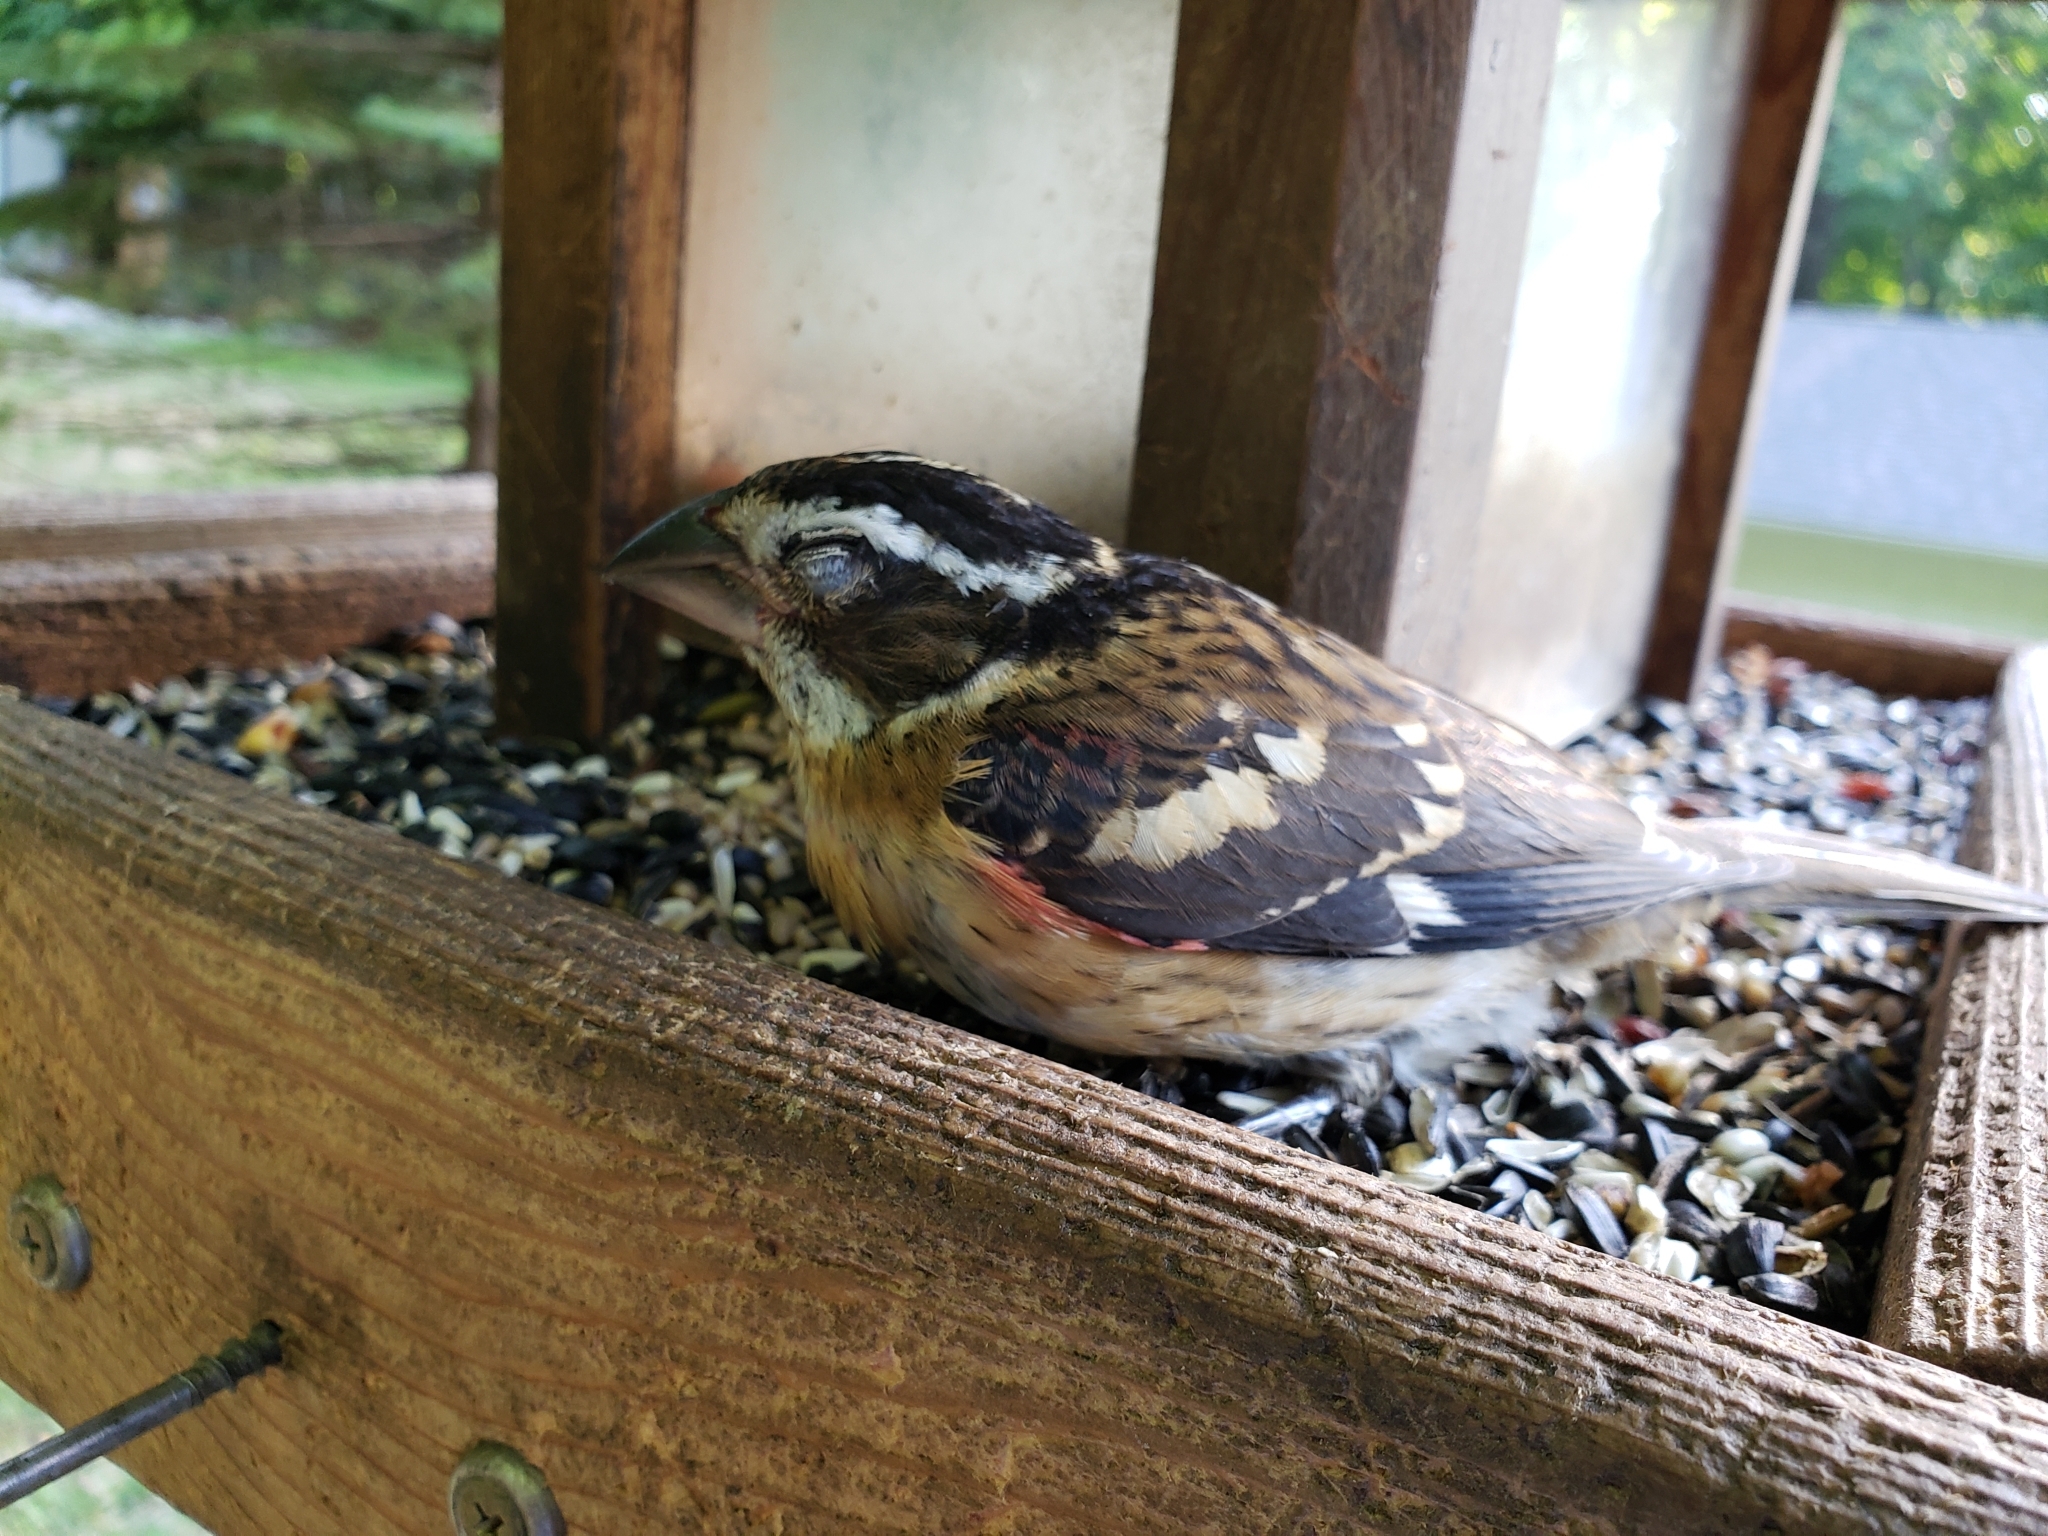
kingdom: Animalia
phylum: Chordata
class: Aves
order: Passeriformes
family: Cardinalidae
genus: Pheucticus
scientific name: Pheucticus ludovicianus
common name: Rose-breasted grosbeak
